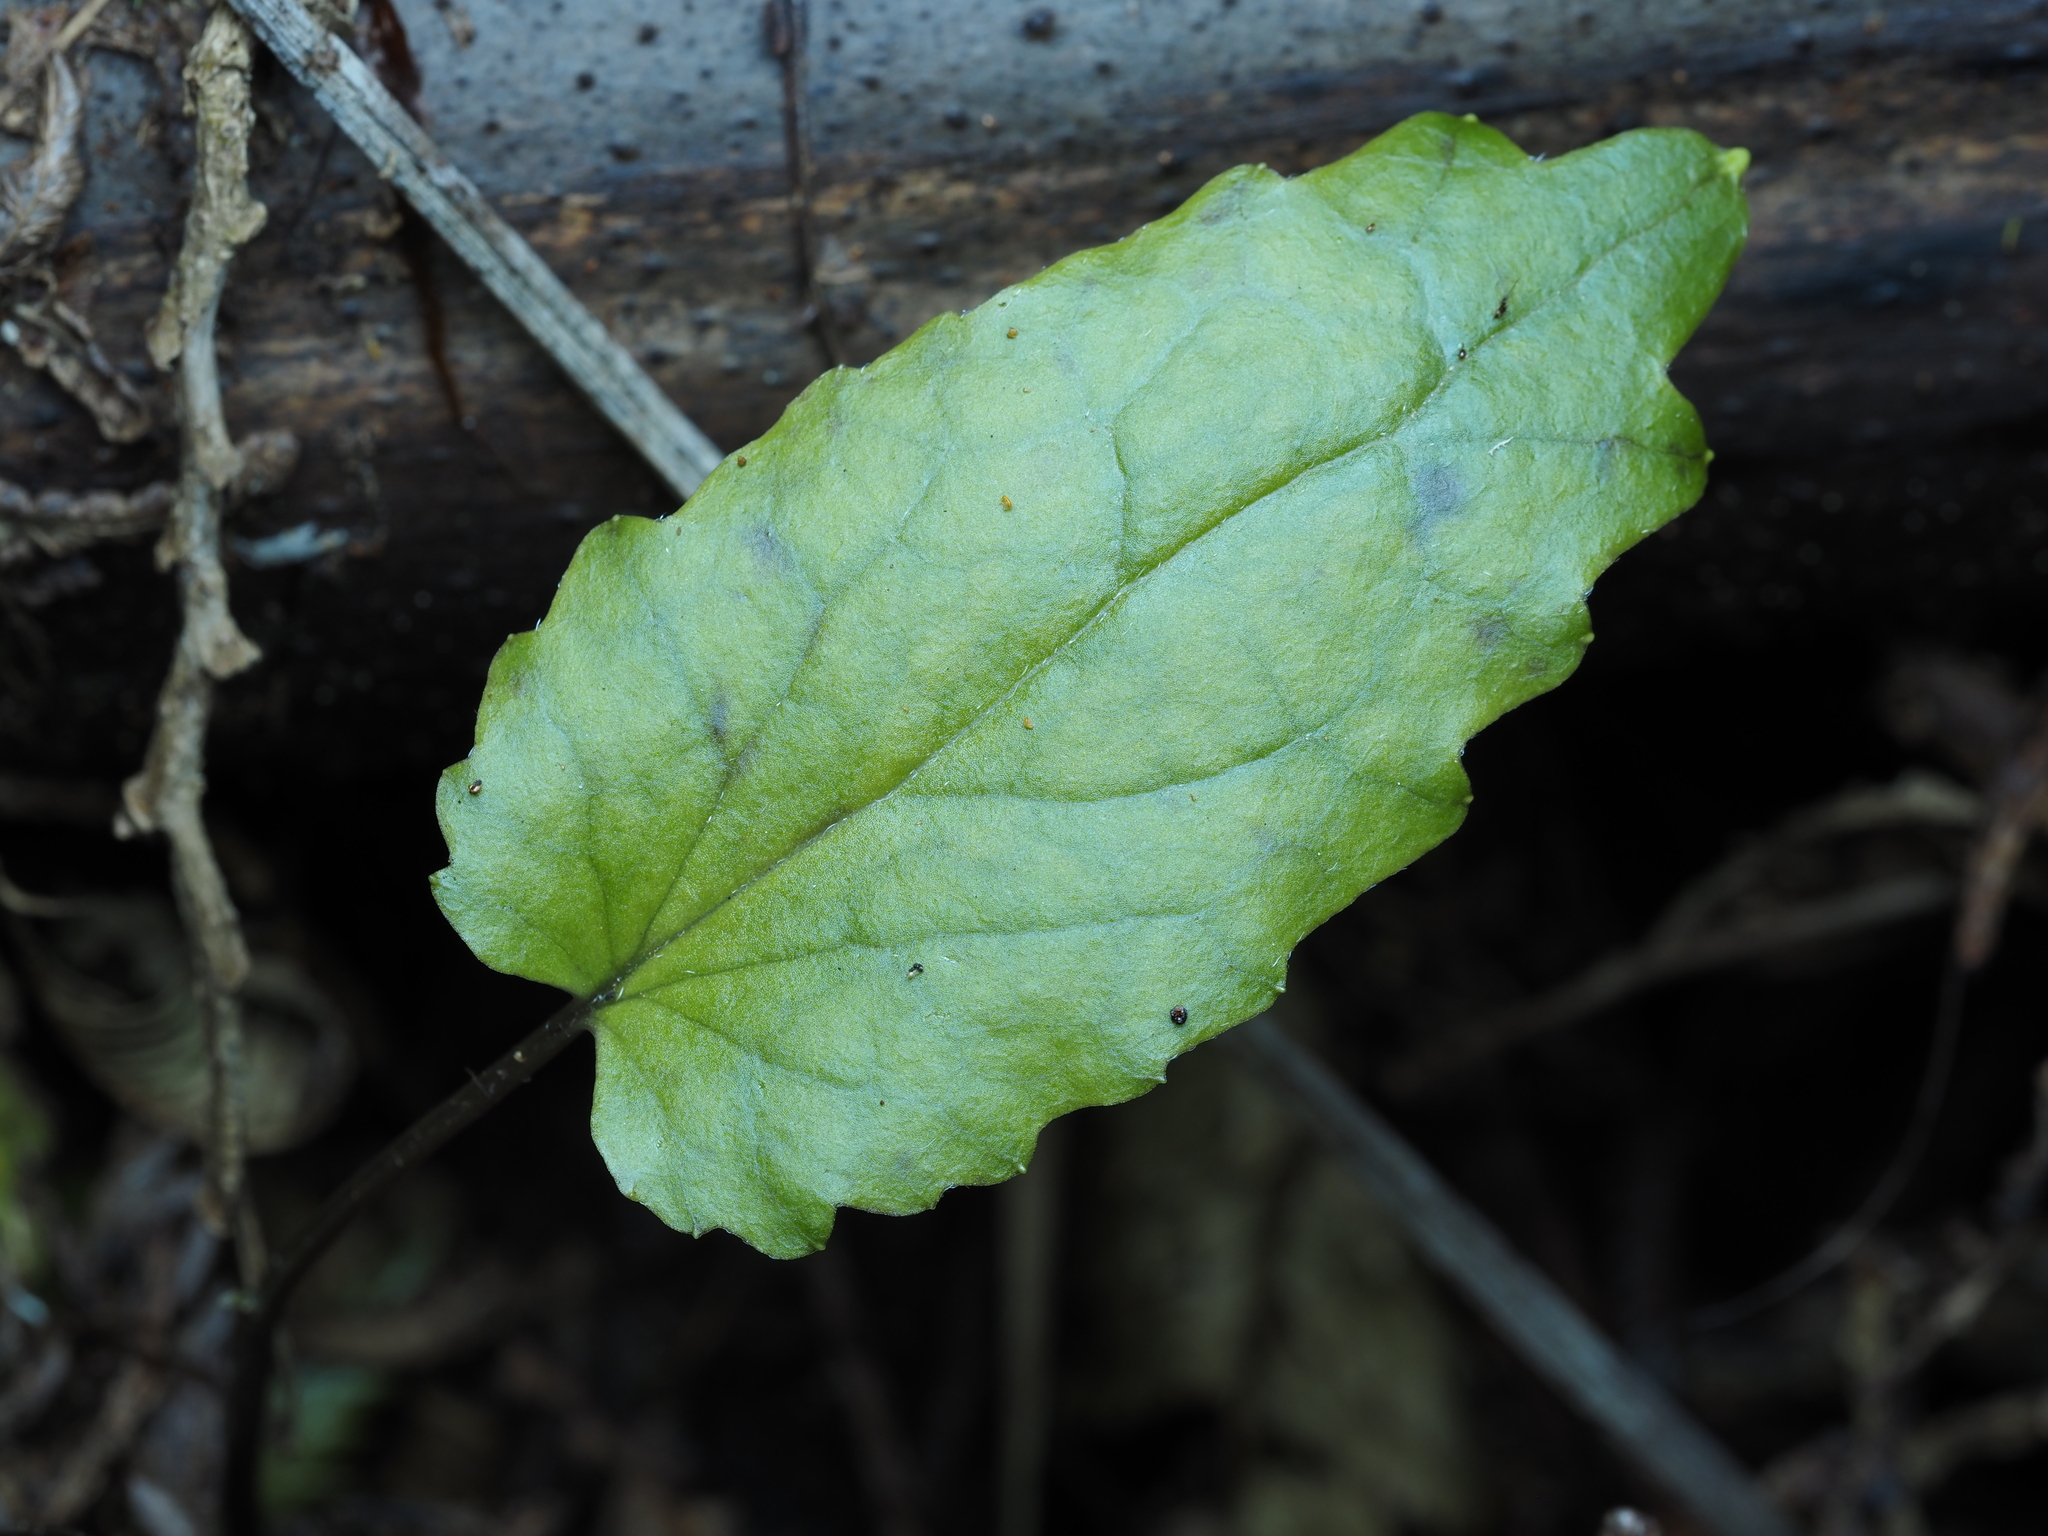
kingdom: Plantae
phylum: Tracheophyta
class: Magnoliopsida
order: Ranunculales
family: Ranunculaceae
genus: Clematis
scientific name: Clematis paniculata
